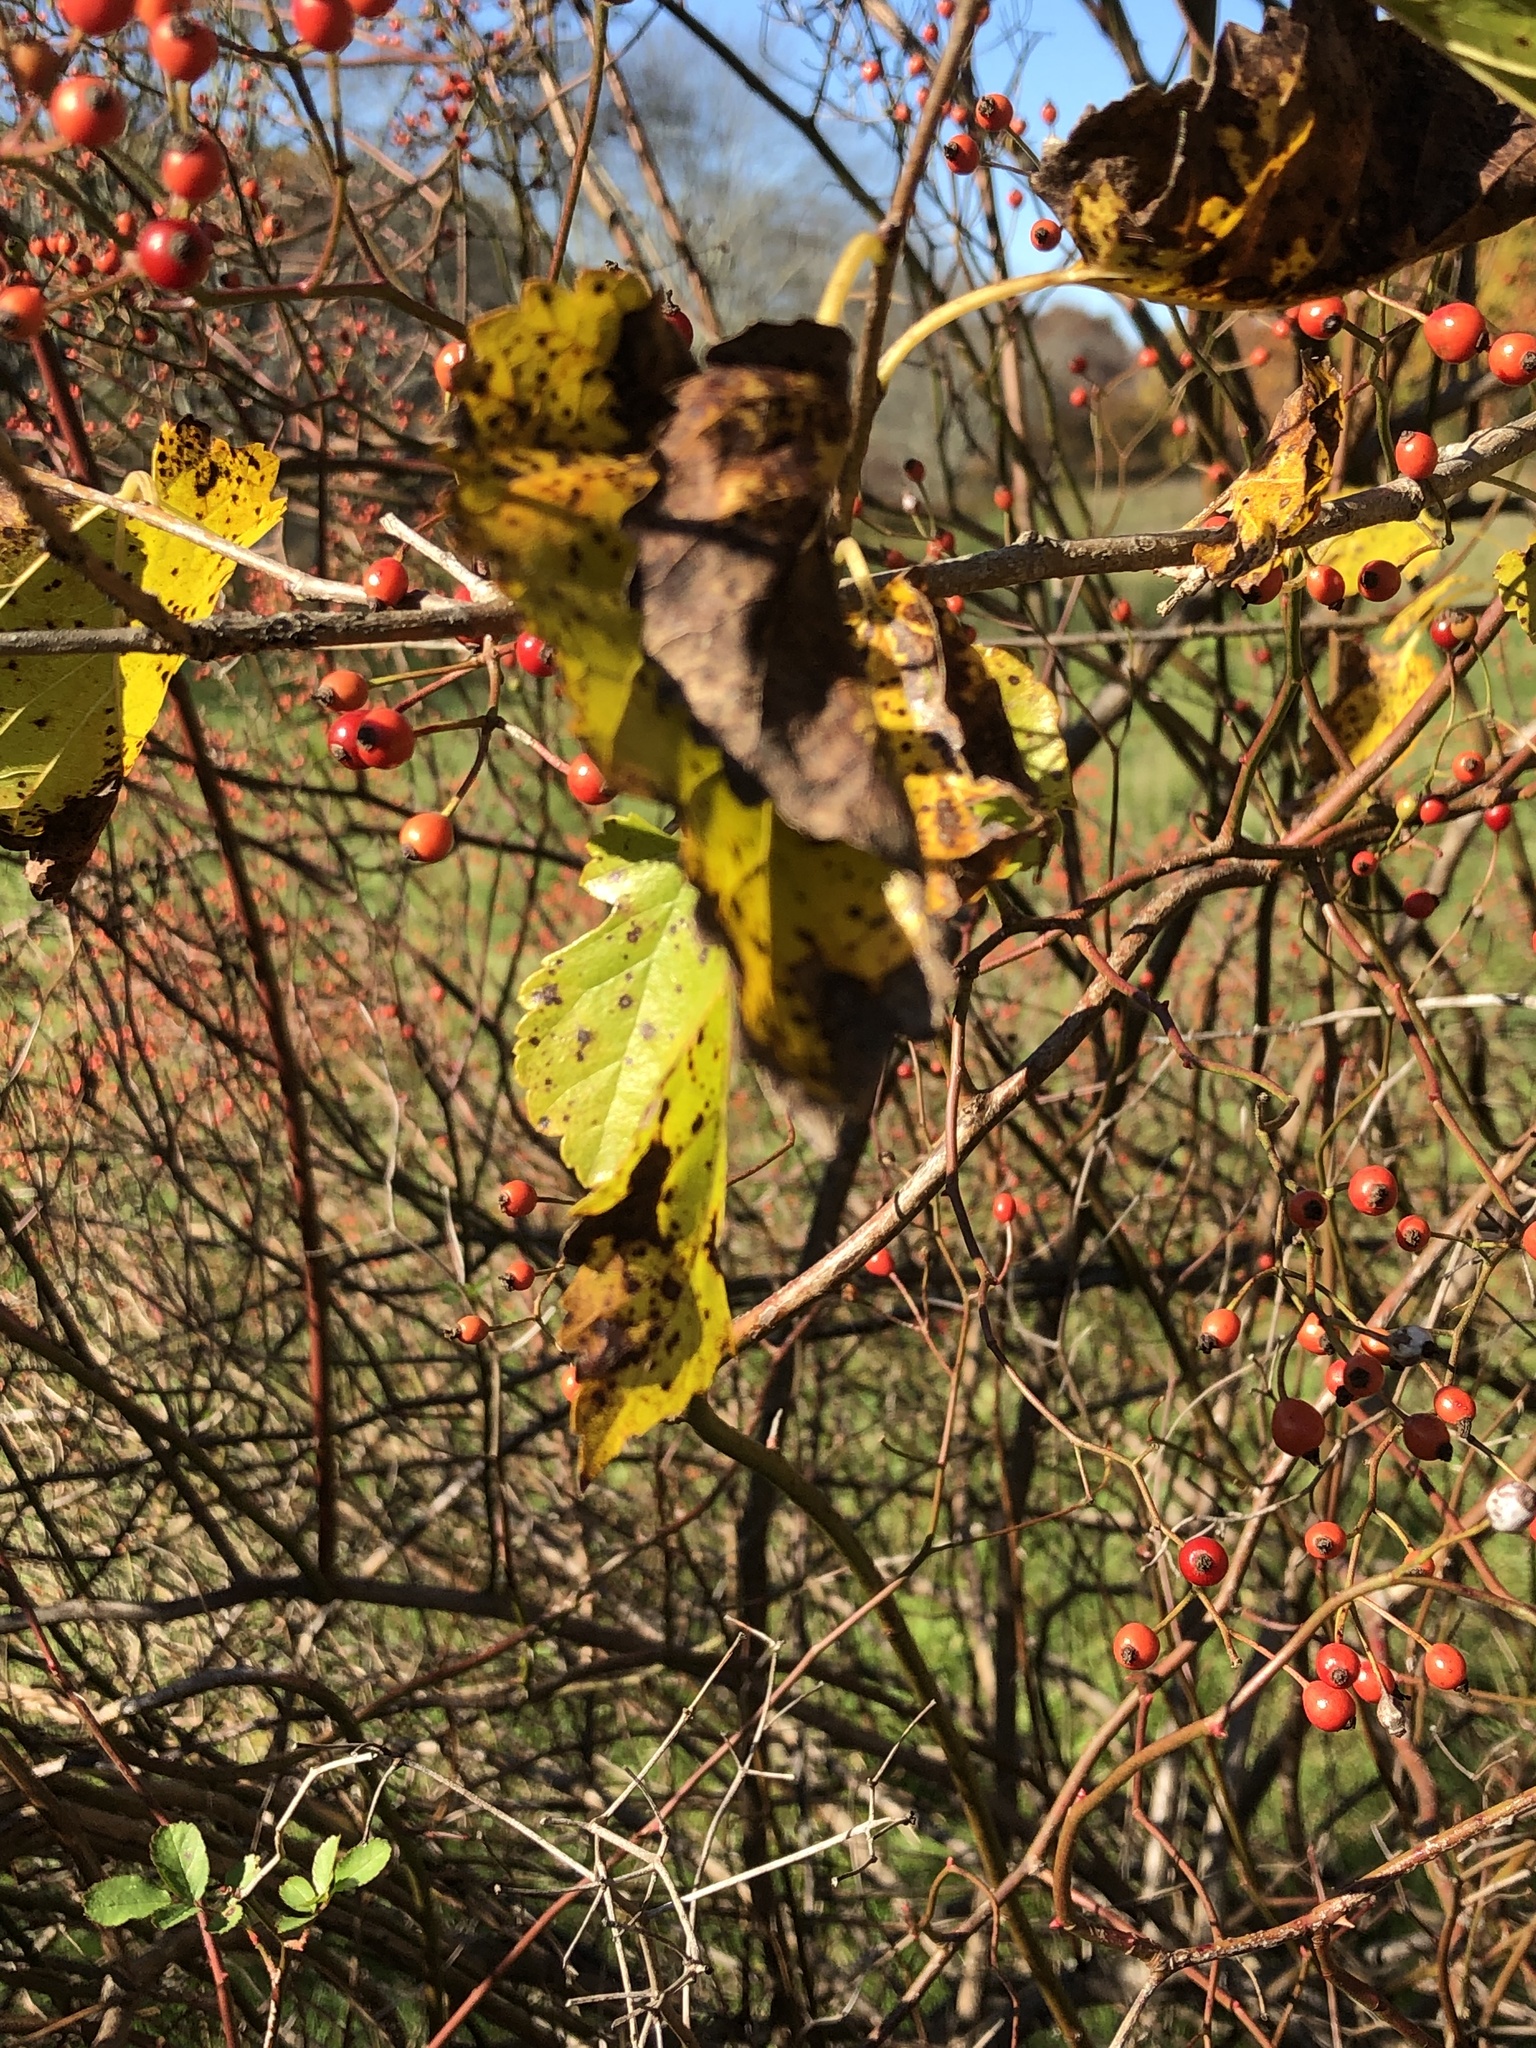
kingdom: Plantae
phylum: Tracheophyta
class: Magnoliopsida
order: Rosales
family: Rosaceae
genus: Rosa
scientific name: Rosa multiflora
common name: Multiflora rose
